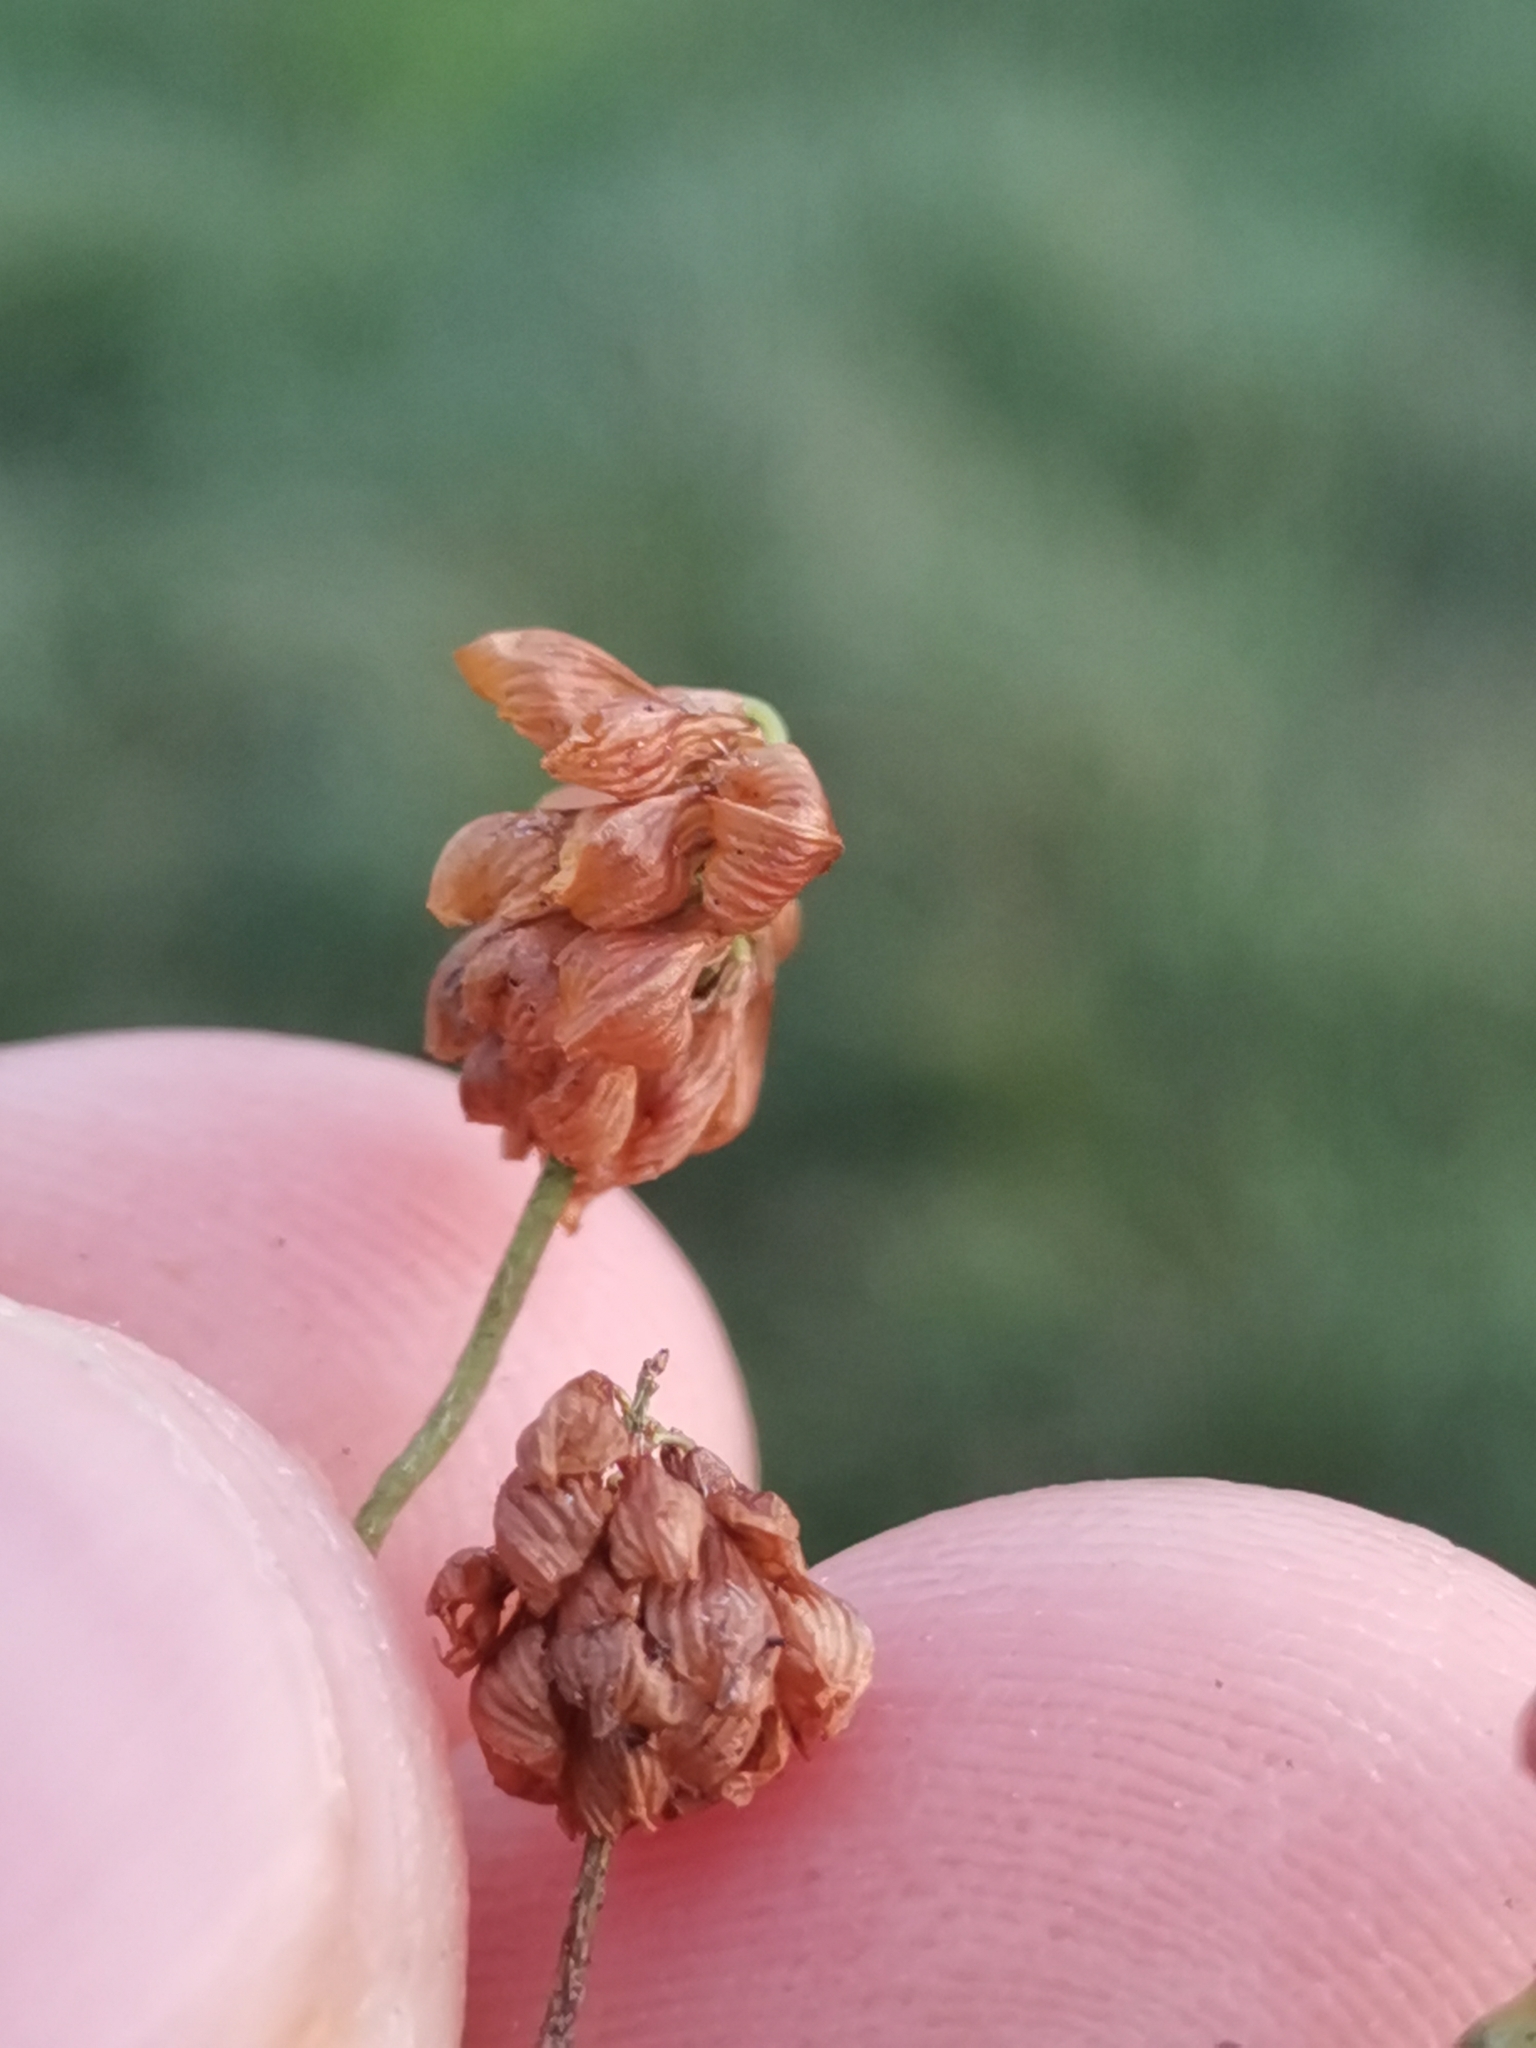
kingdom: Plantae
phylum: Tracheophyta
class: Magnoliopsida
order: Fabales
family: Fabaceae
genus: Trifolium
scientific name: Trifolium campestre
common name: Field clover
